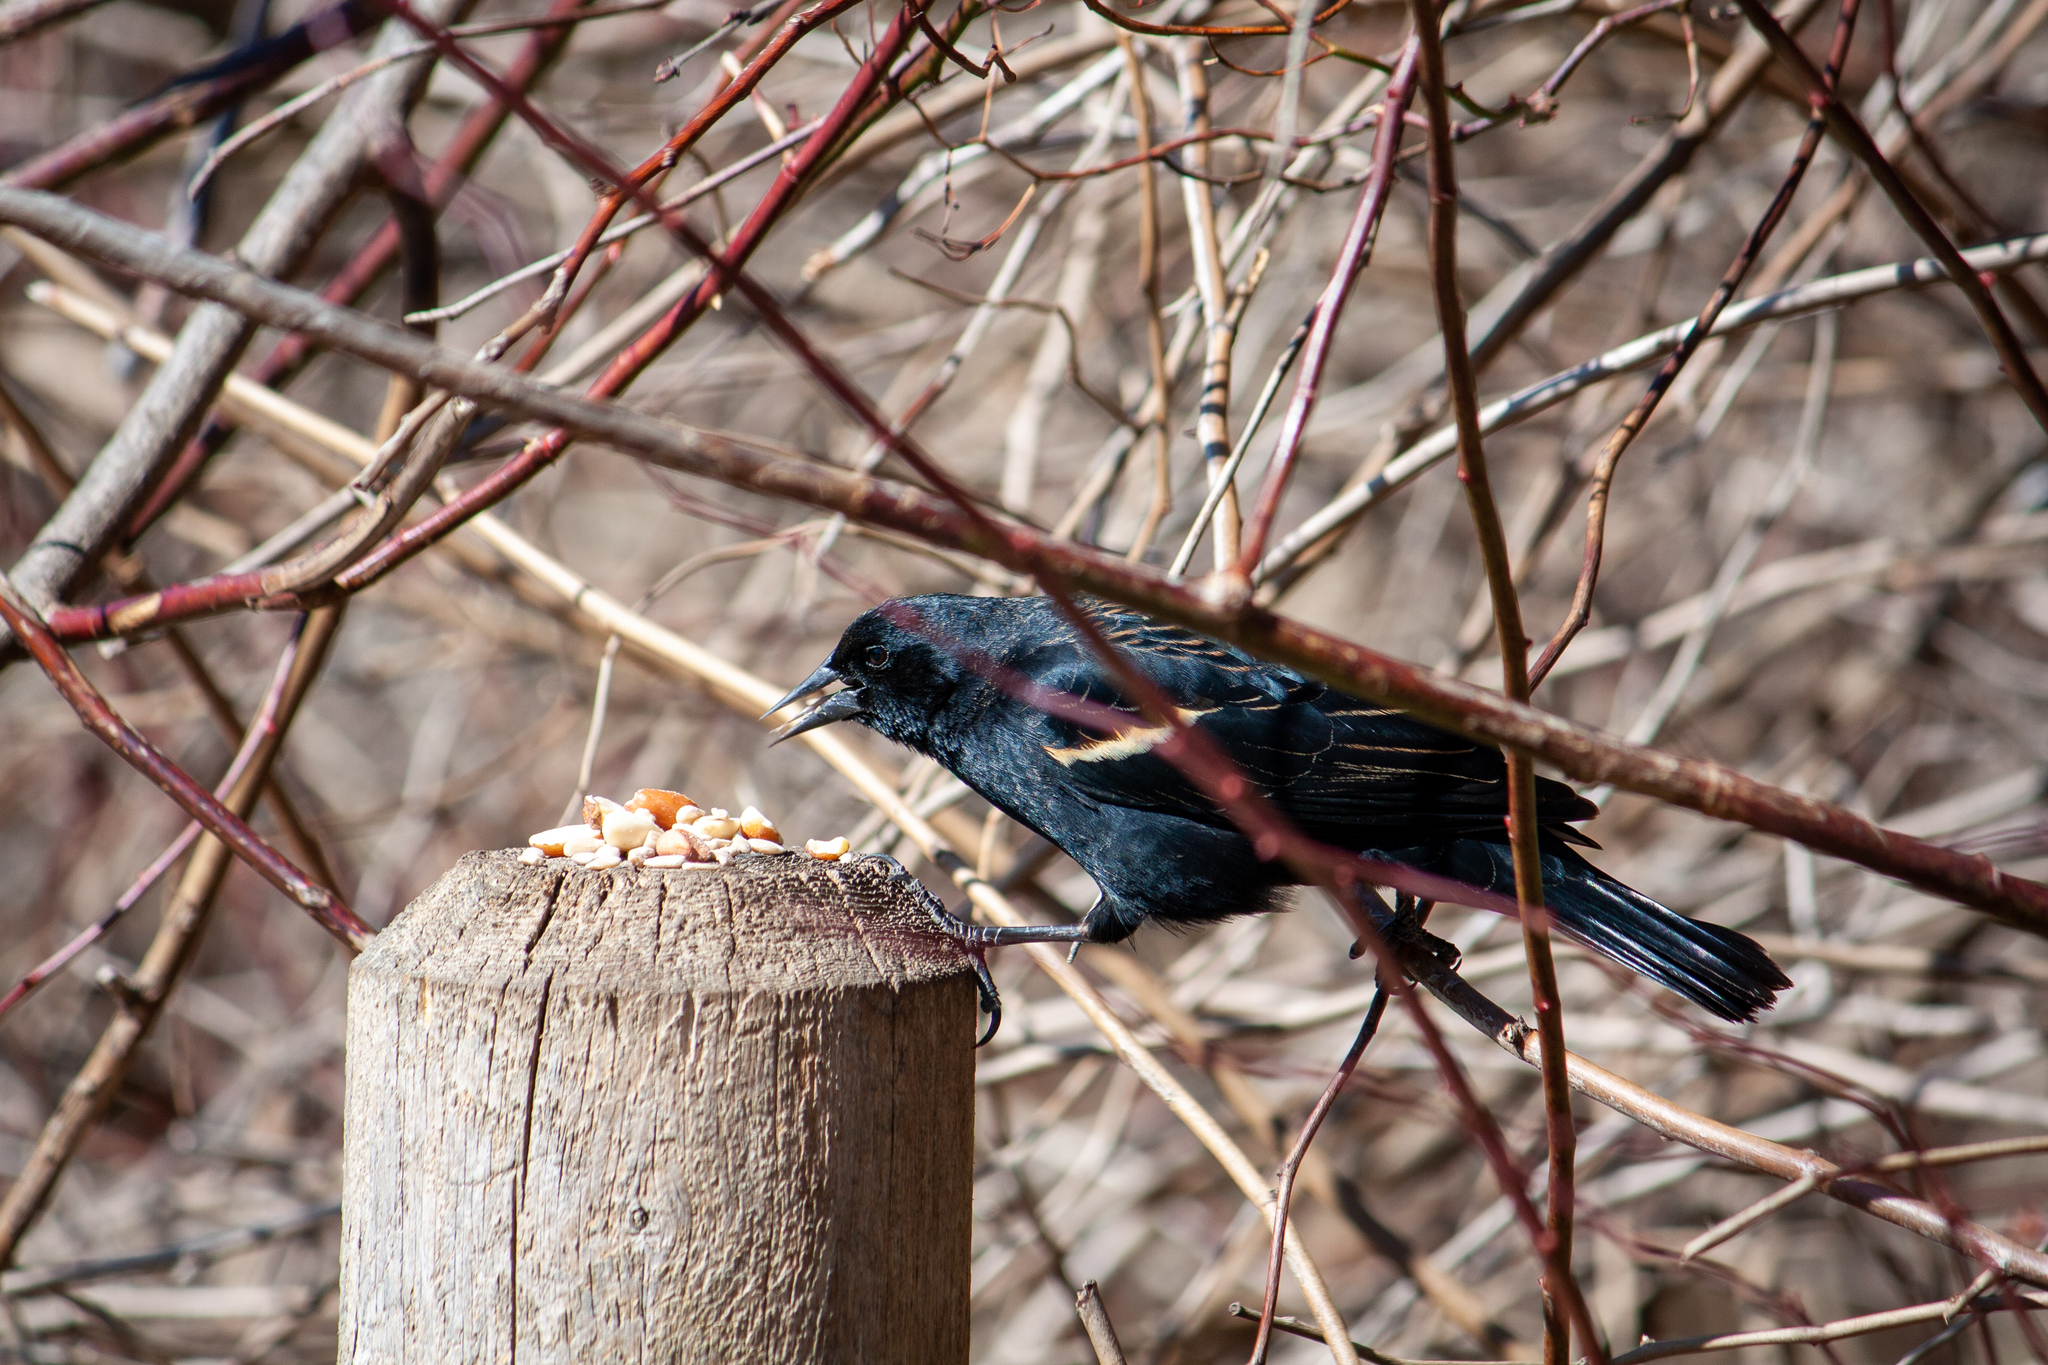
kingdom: Animalia
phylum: Chordata
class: Aves
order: Passeriformes
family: Icteridae
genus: Agelaius
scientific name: Agelaius phoeniceus
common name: Red-winged blackbird
